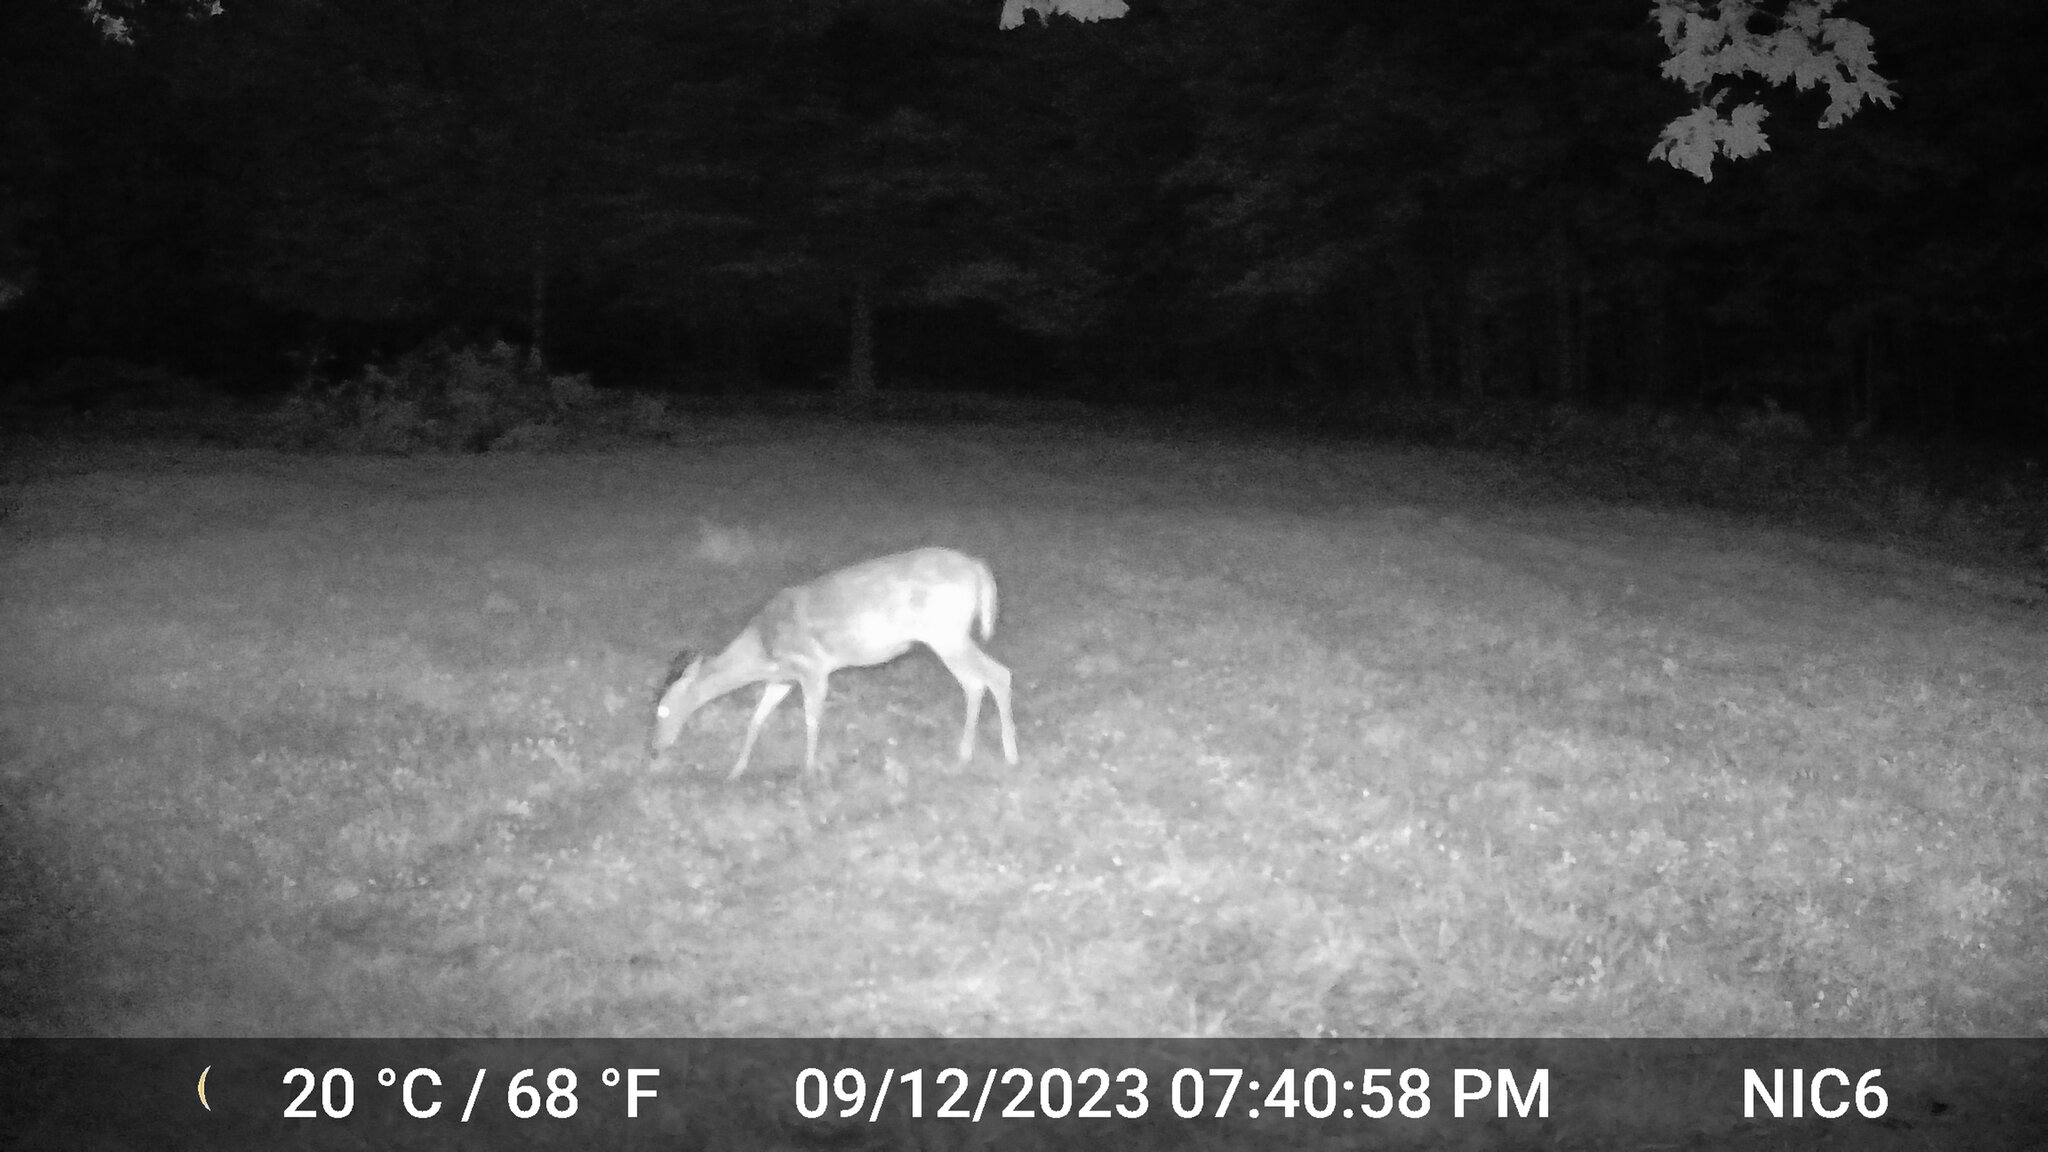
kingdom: Animalia
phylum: Chordata
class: Mammalia
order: Artiodactyla
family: Cervidae
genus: Odocoileus
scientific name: Odocoileus virginianus
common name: White-tailed deer
